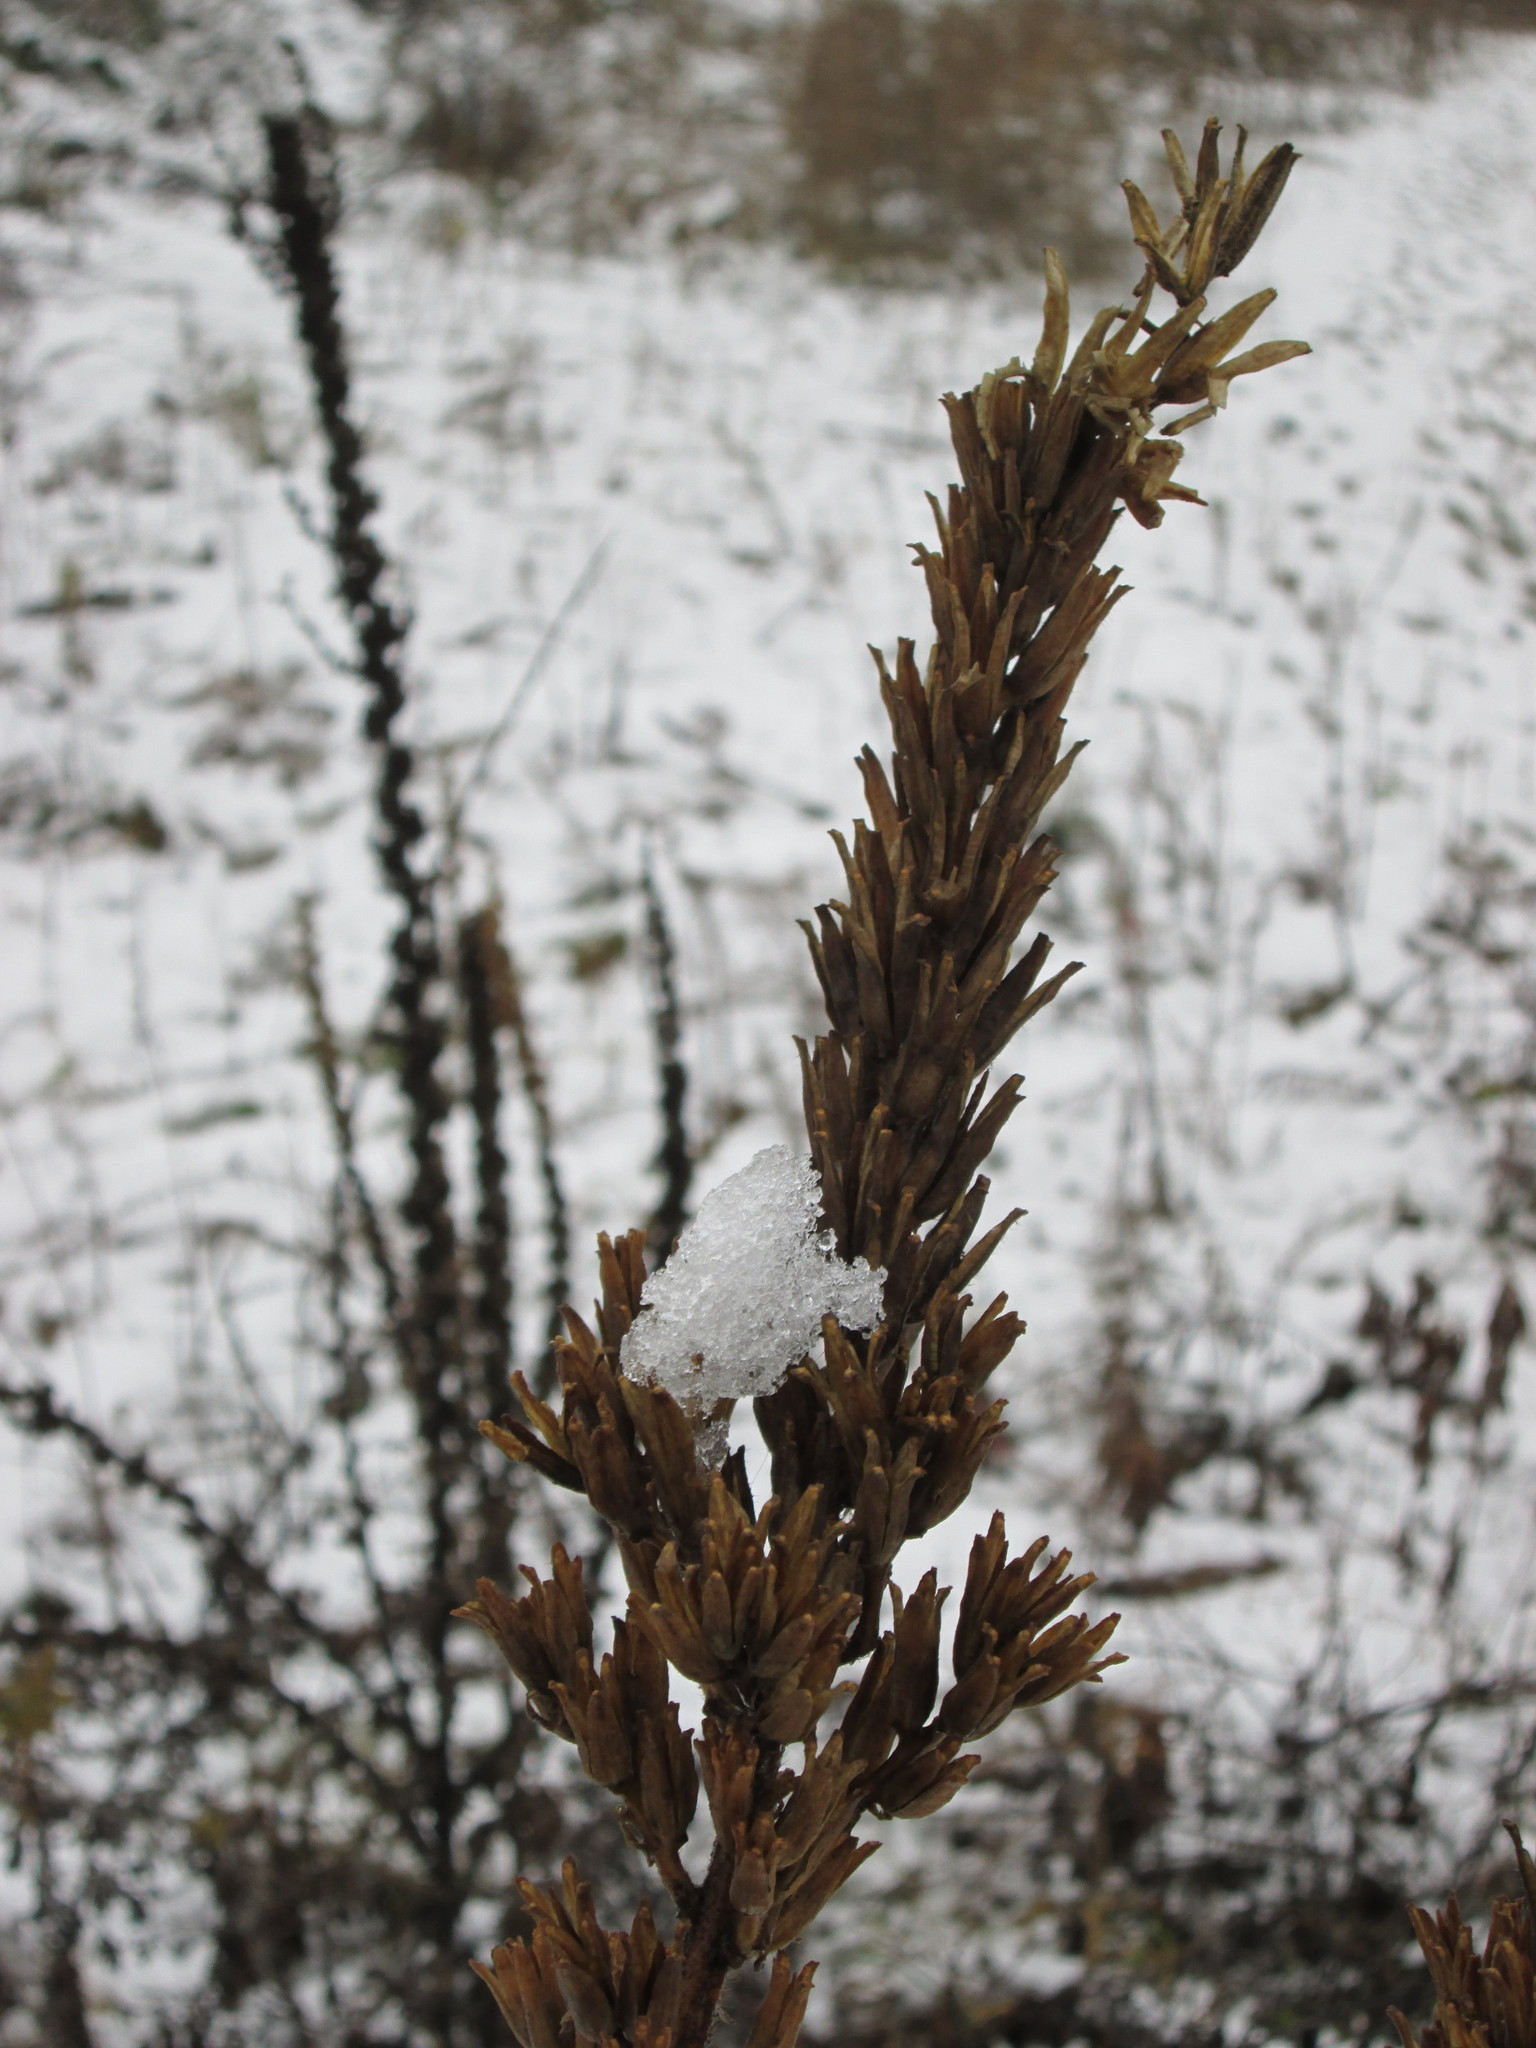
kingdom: Plantae
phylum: Tracheophyta
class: Magnoliopsida
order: Myrtales
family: Onagraceae
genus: Oenothera
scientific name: Oenothera biennis
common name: Common evening-primrose
